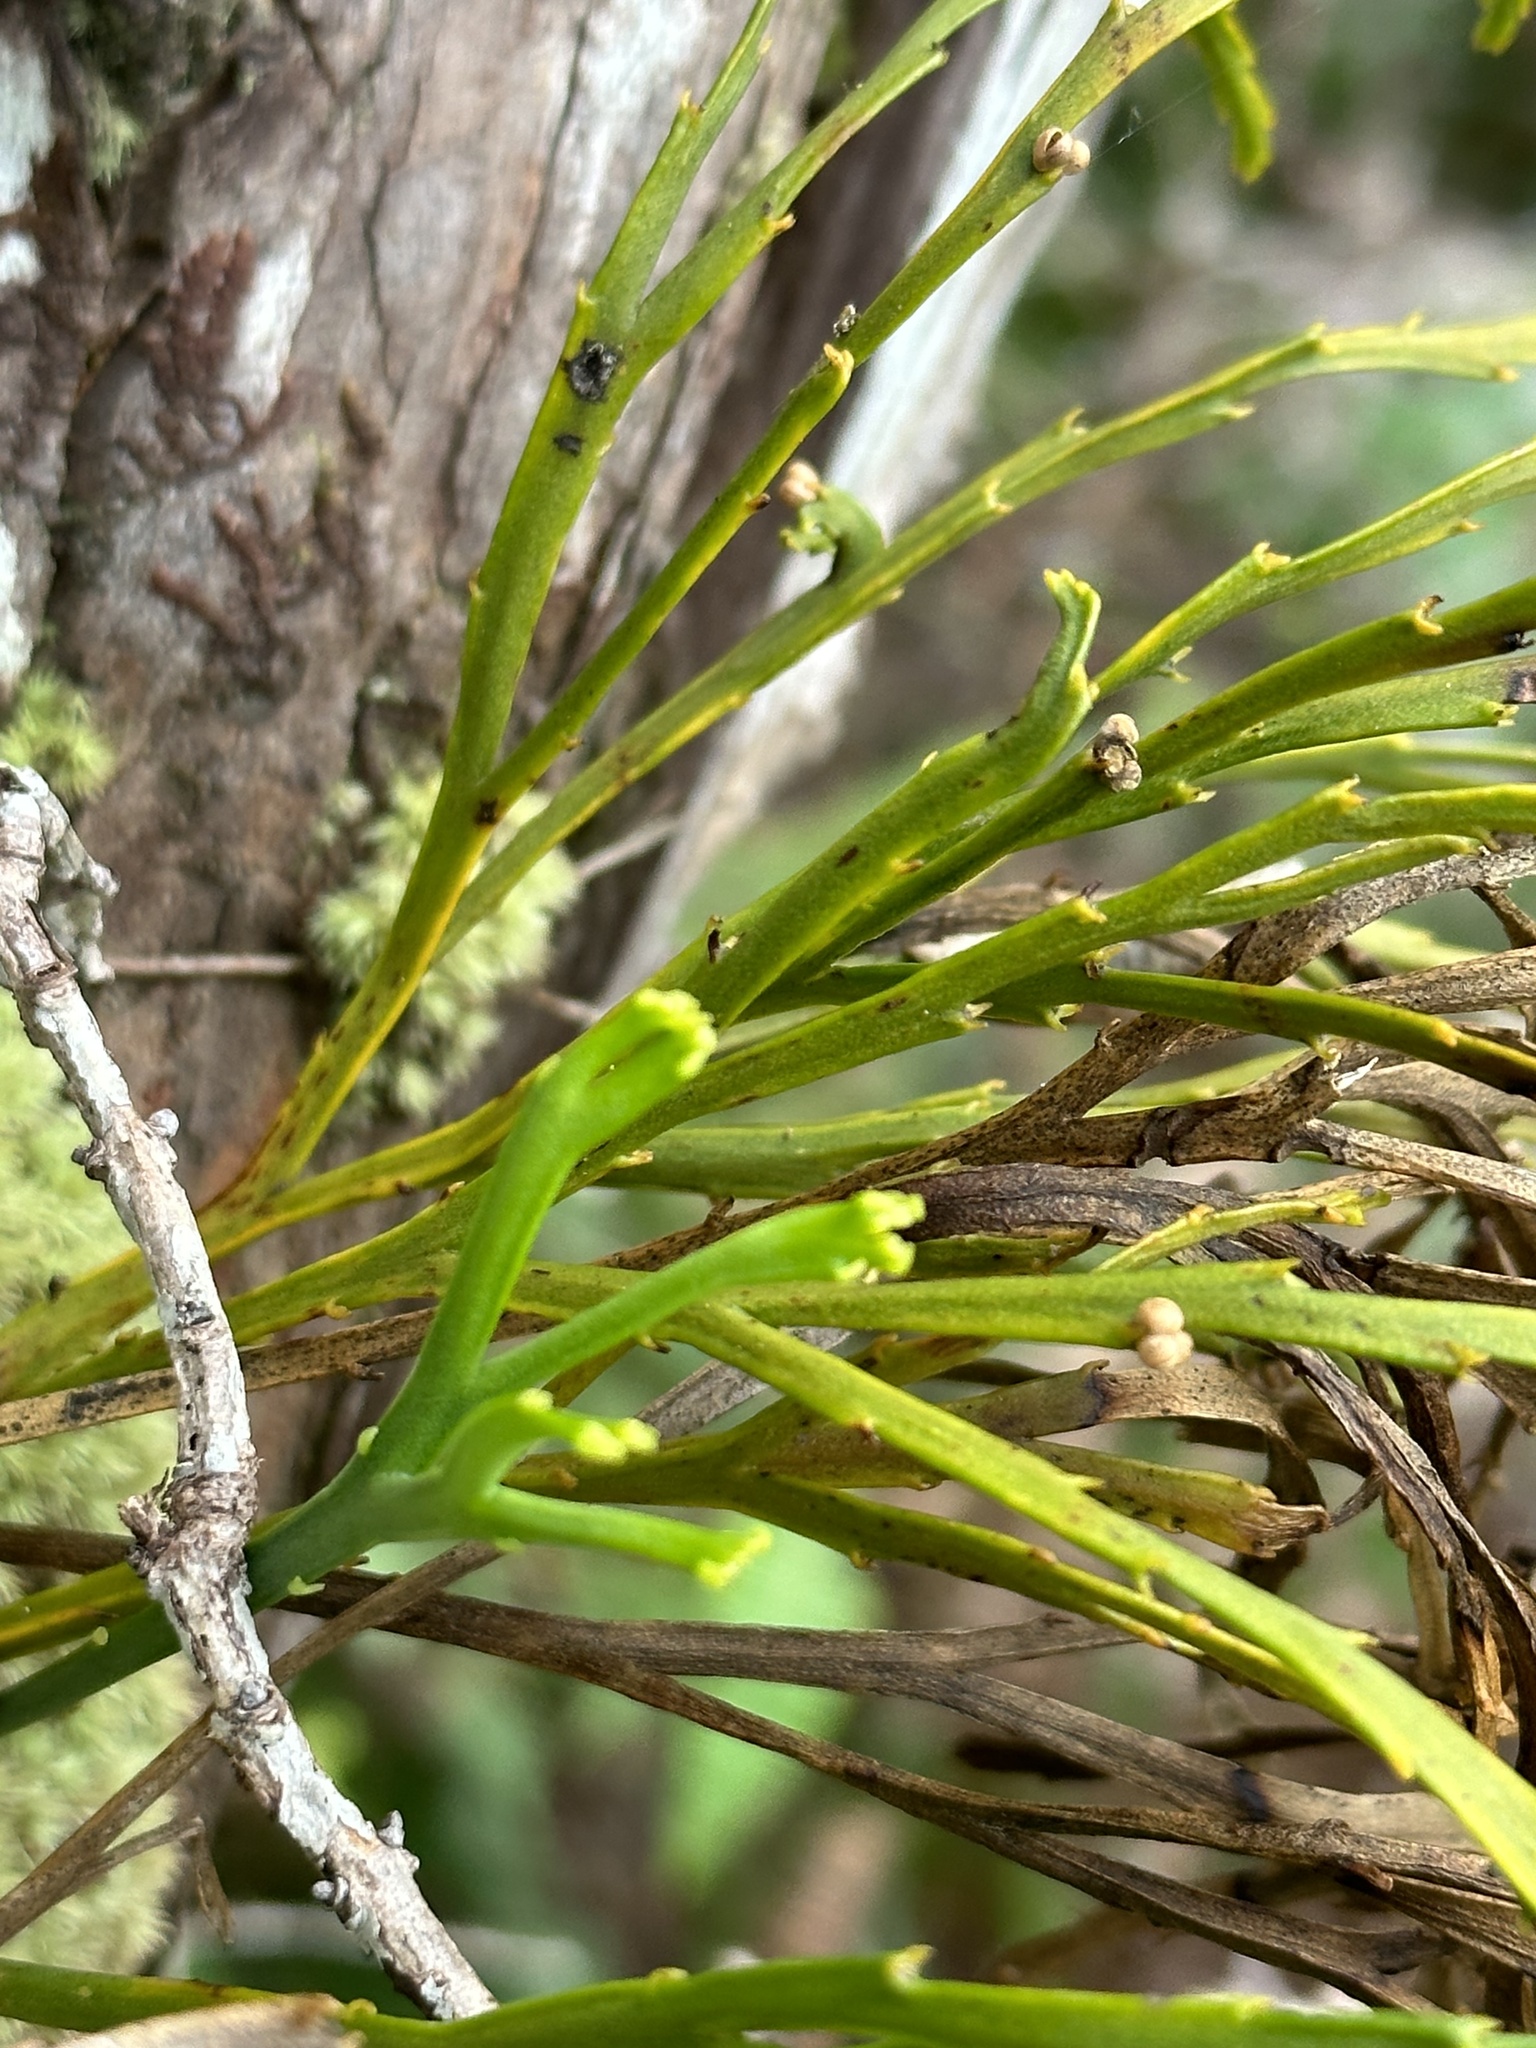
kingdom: Plantae
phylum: Tracheophyta
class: Polypodiopsida
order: Psilotales
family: Psilotaceae
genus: Psilotum
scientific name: Psilotum complanatum
